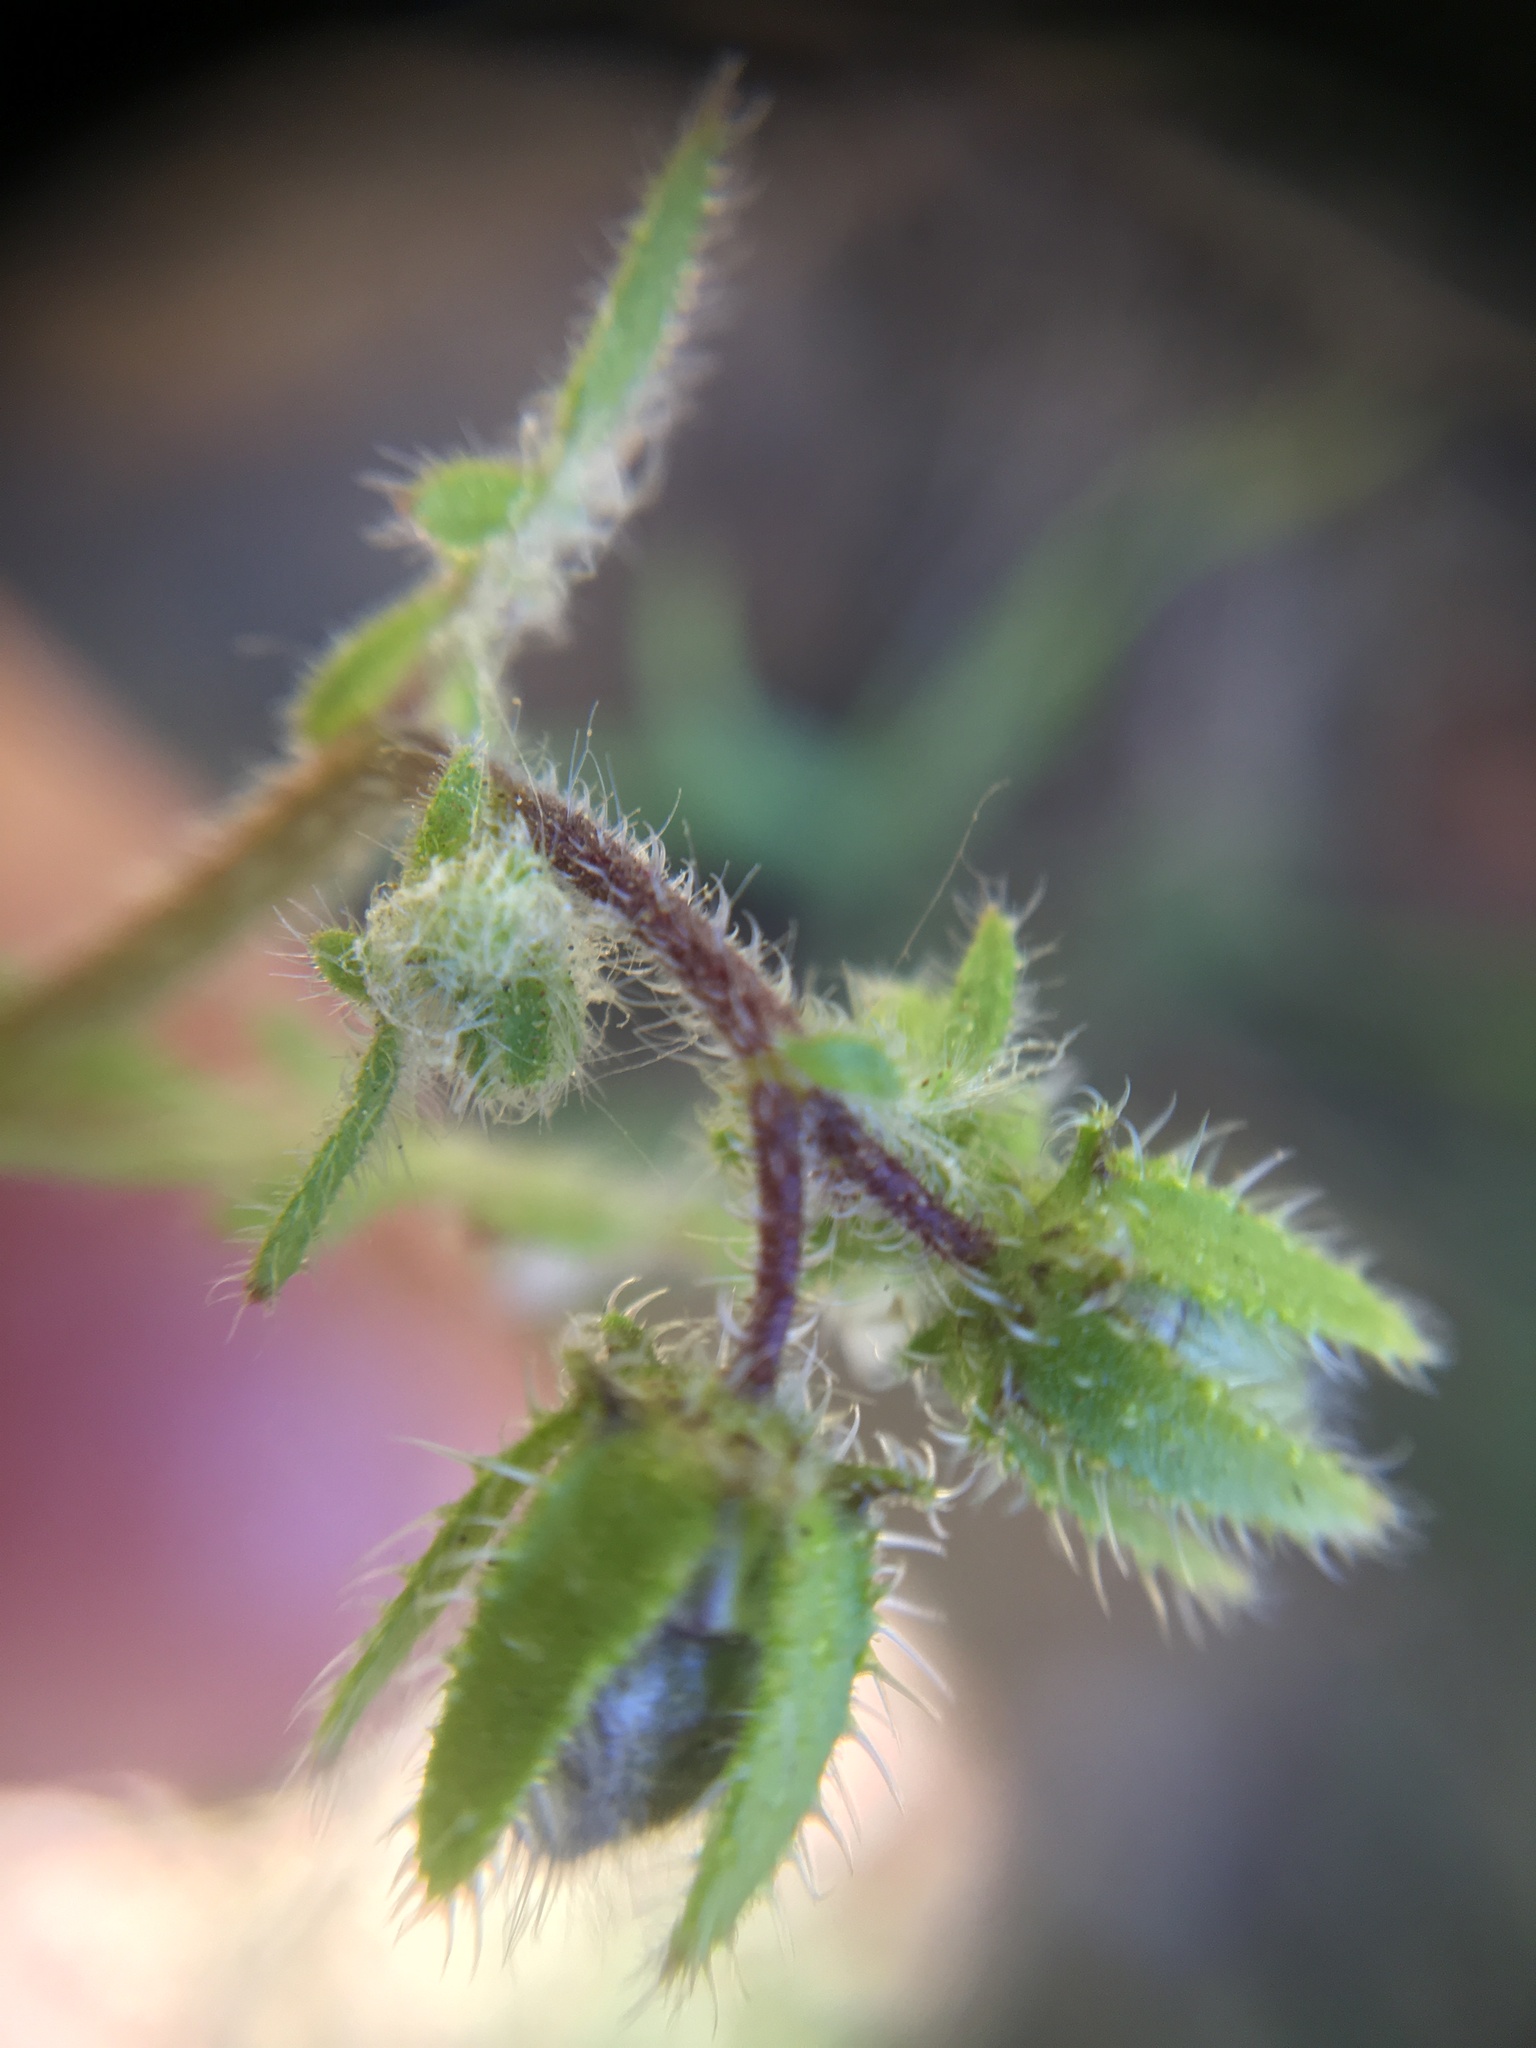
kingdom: Plantae
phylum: Tracheophyta
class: Magnoliopsida
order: Boraginales
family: Hydrophyllaceae
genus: Pholistoma
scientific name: Pholistoma auritum
